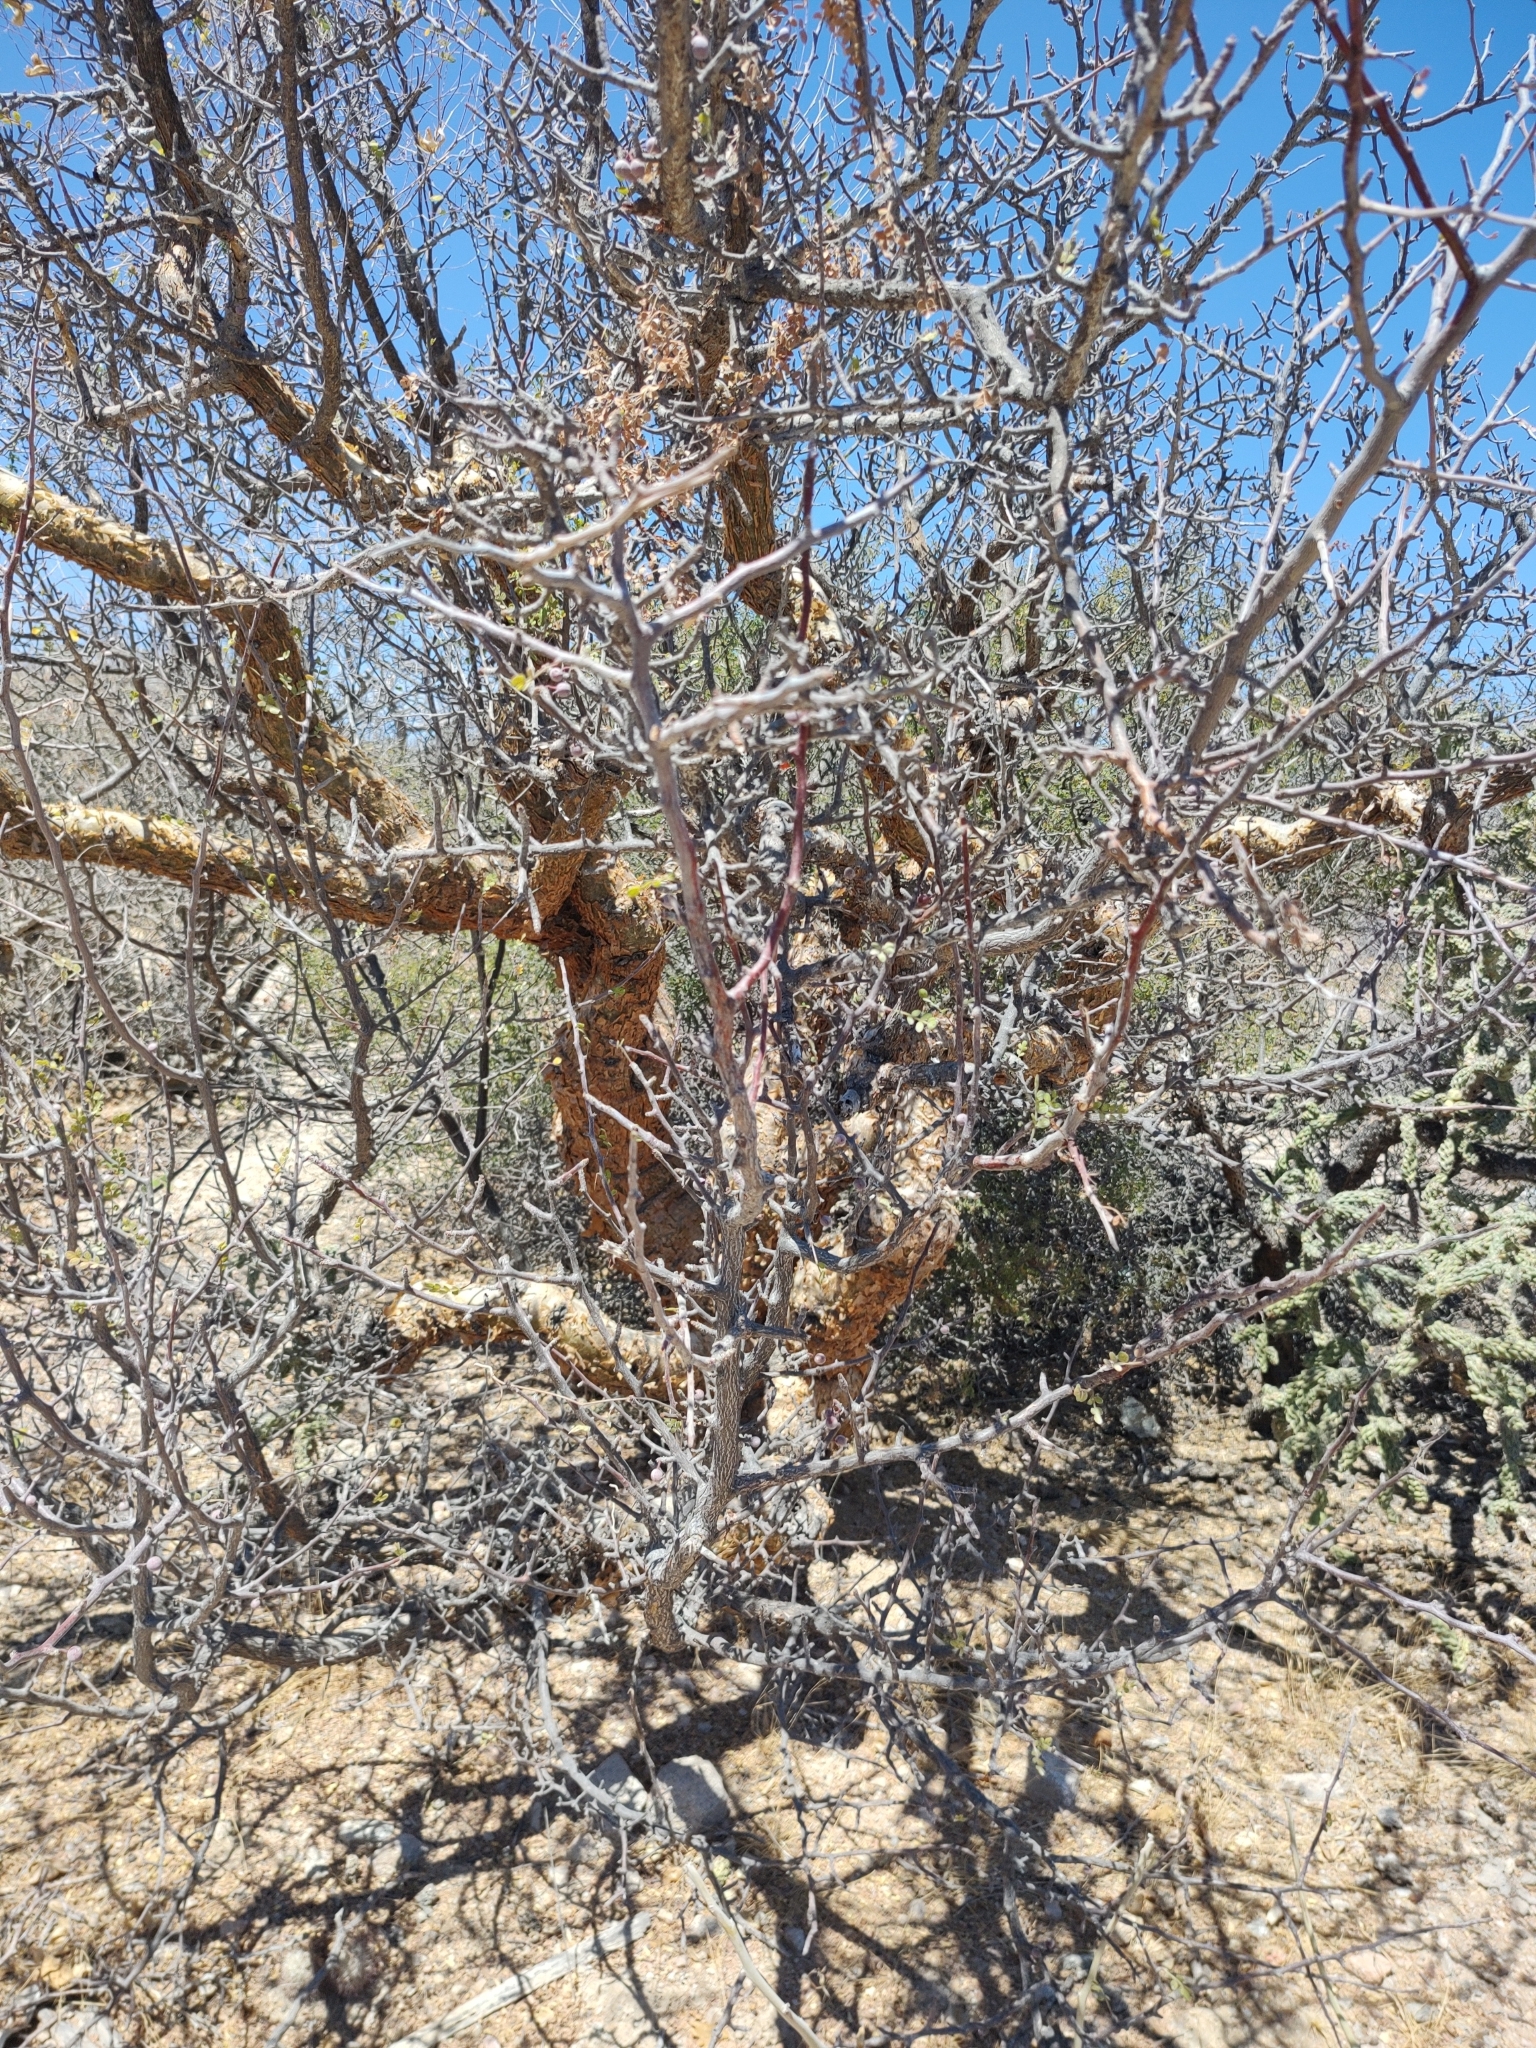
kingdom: Plantae
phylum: Tracheophyta
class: Magnoliopsida
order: Sapindales
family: Burseraceae
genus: Bursera
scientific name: Bursera exequielii
